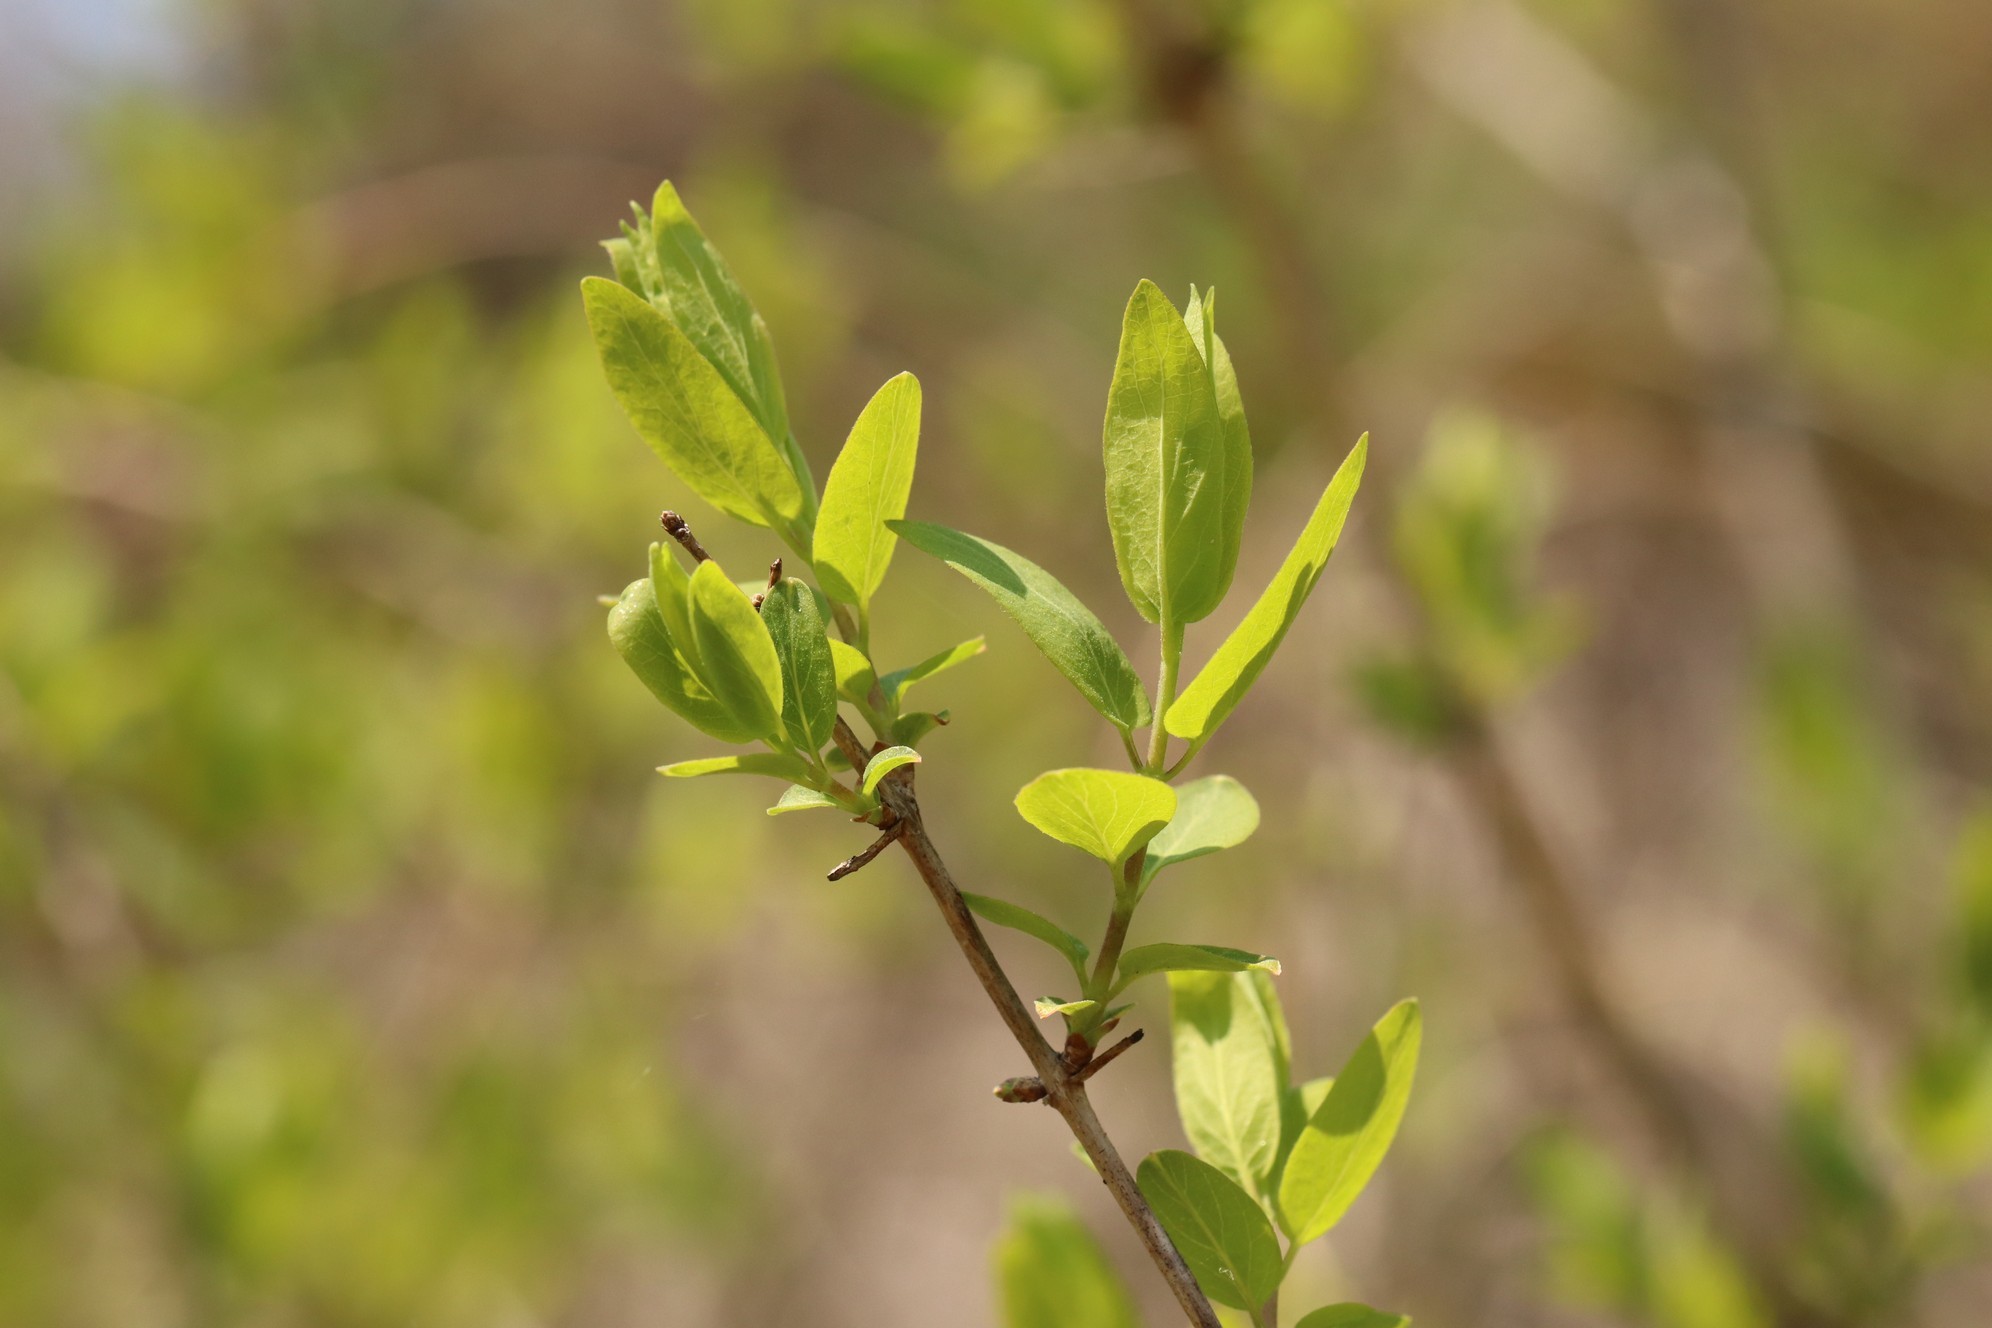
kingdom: Plantae
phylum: Tracheophyta
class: Magnoliopsida
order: Dipsacales
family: Caprifoliaceae
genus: Lonicera
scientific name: Lonicera tatarica
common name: Tatarian honeysuckle
